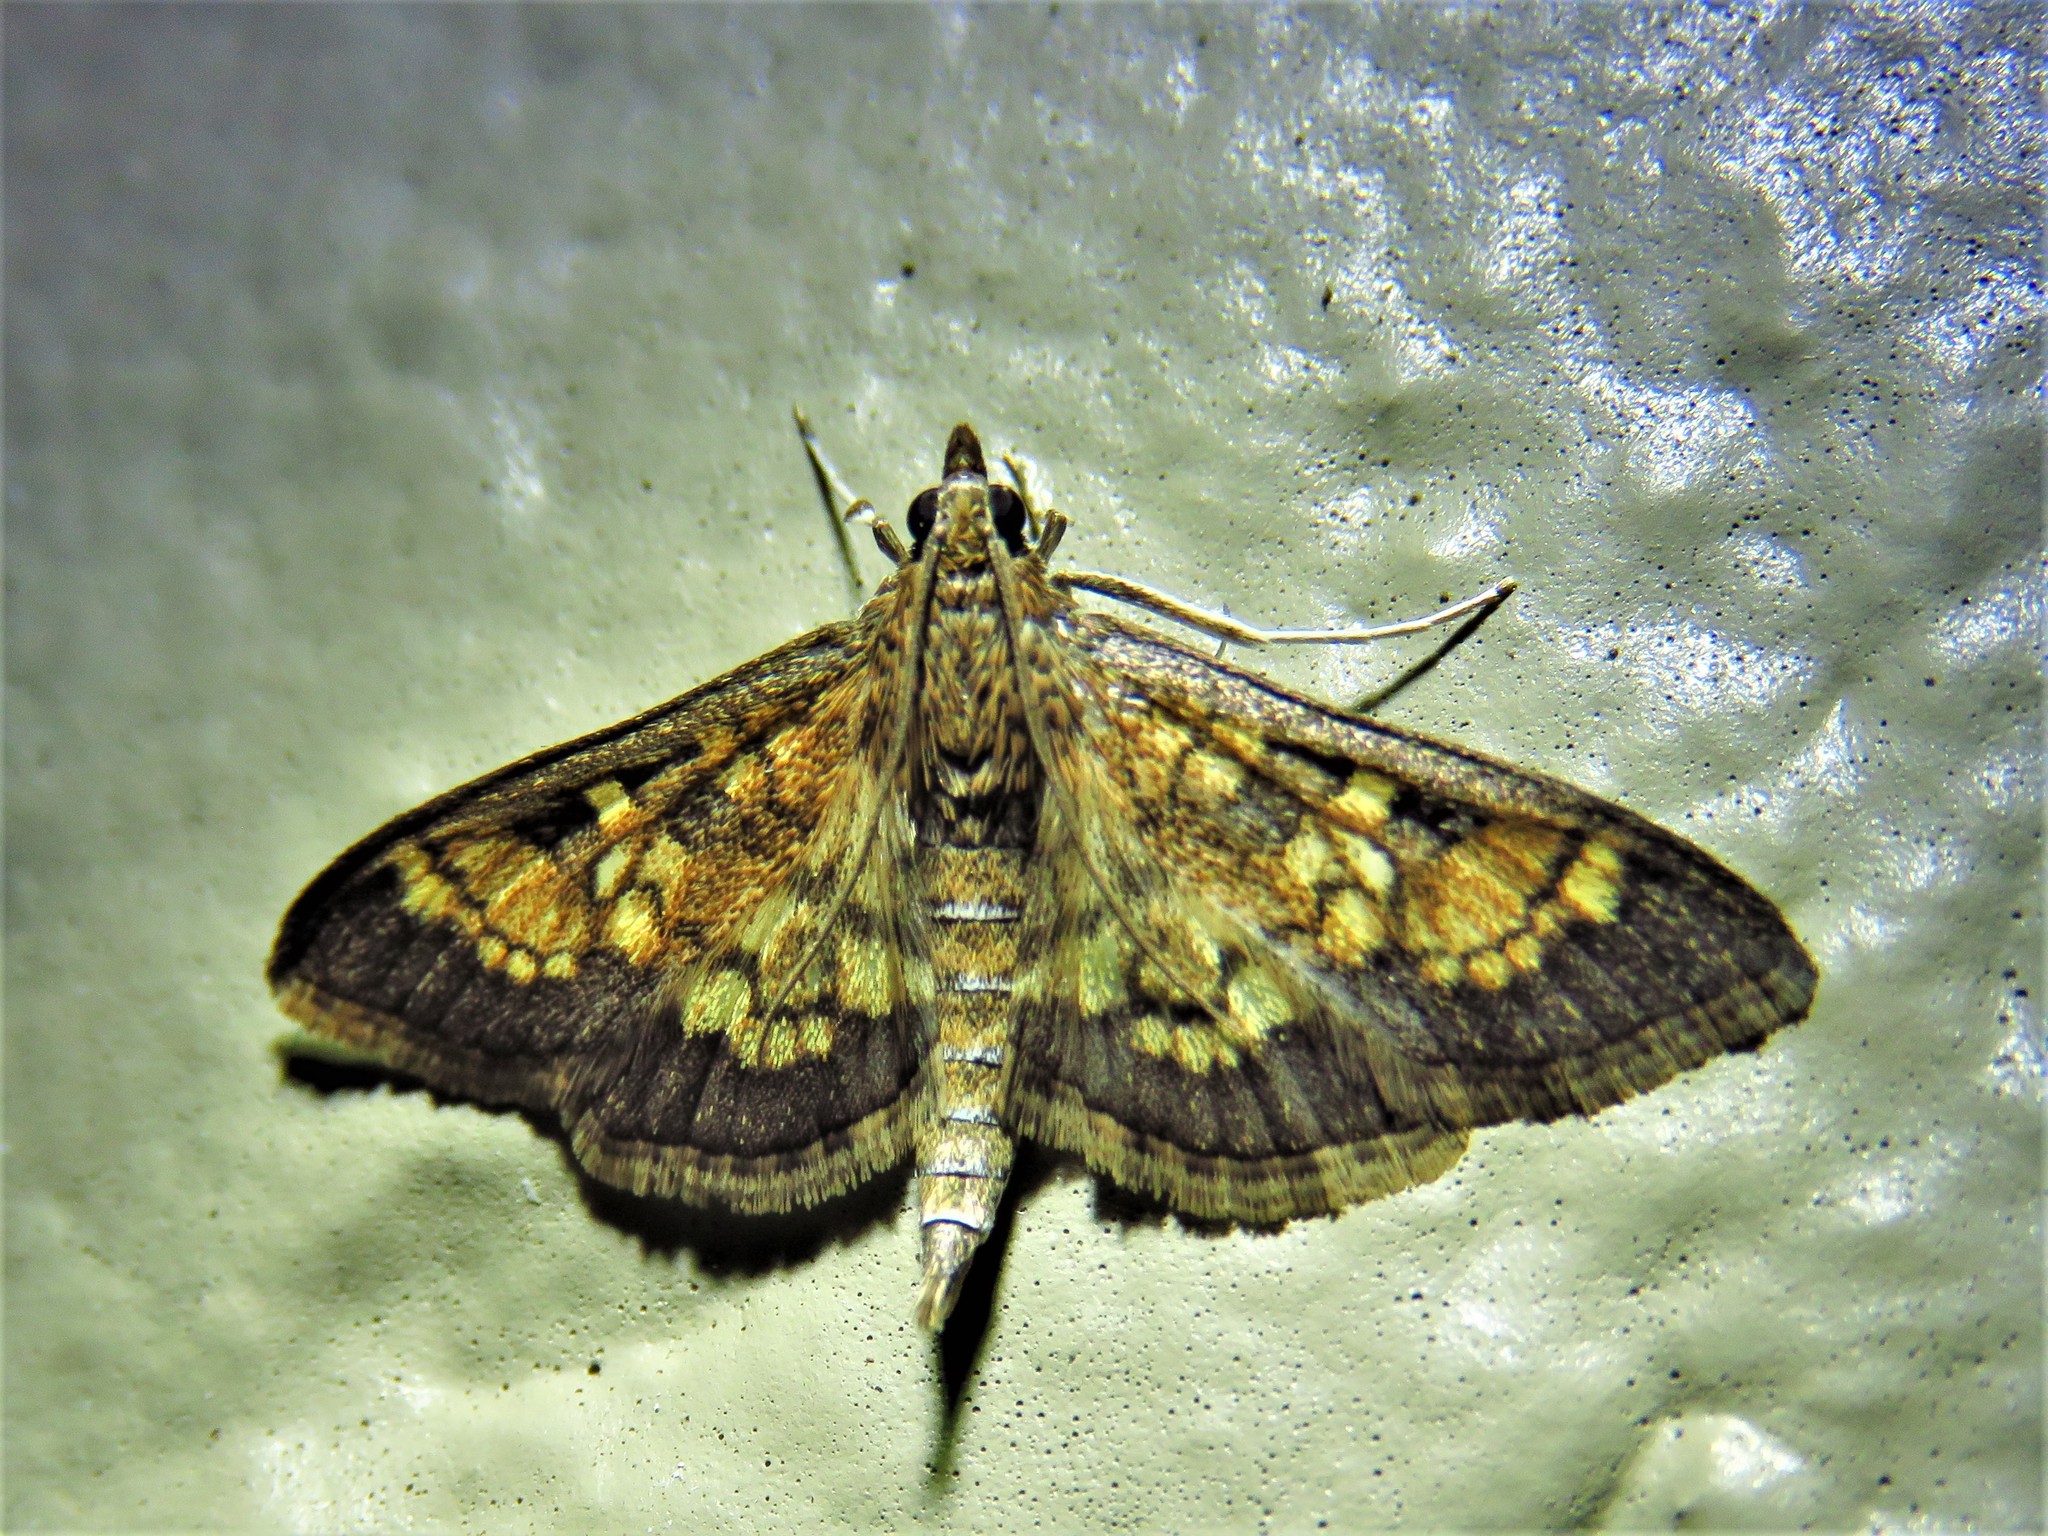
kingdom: Animalia
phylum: Arthropoda
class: Insecta
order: Lepidoptera
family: Crambidae
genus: Epipagis
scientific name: Epipagis adipaloides
